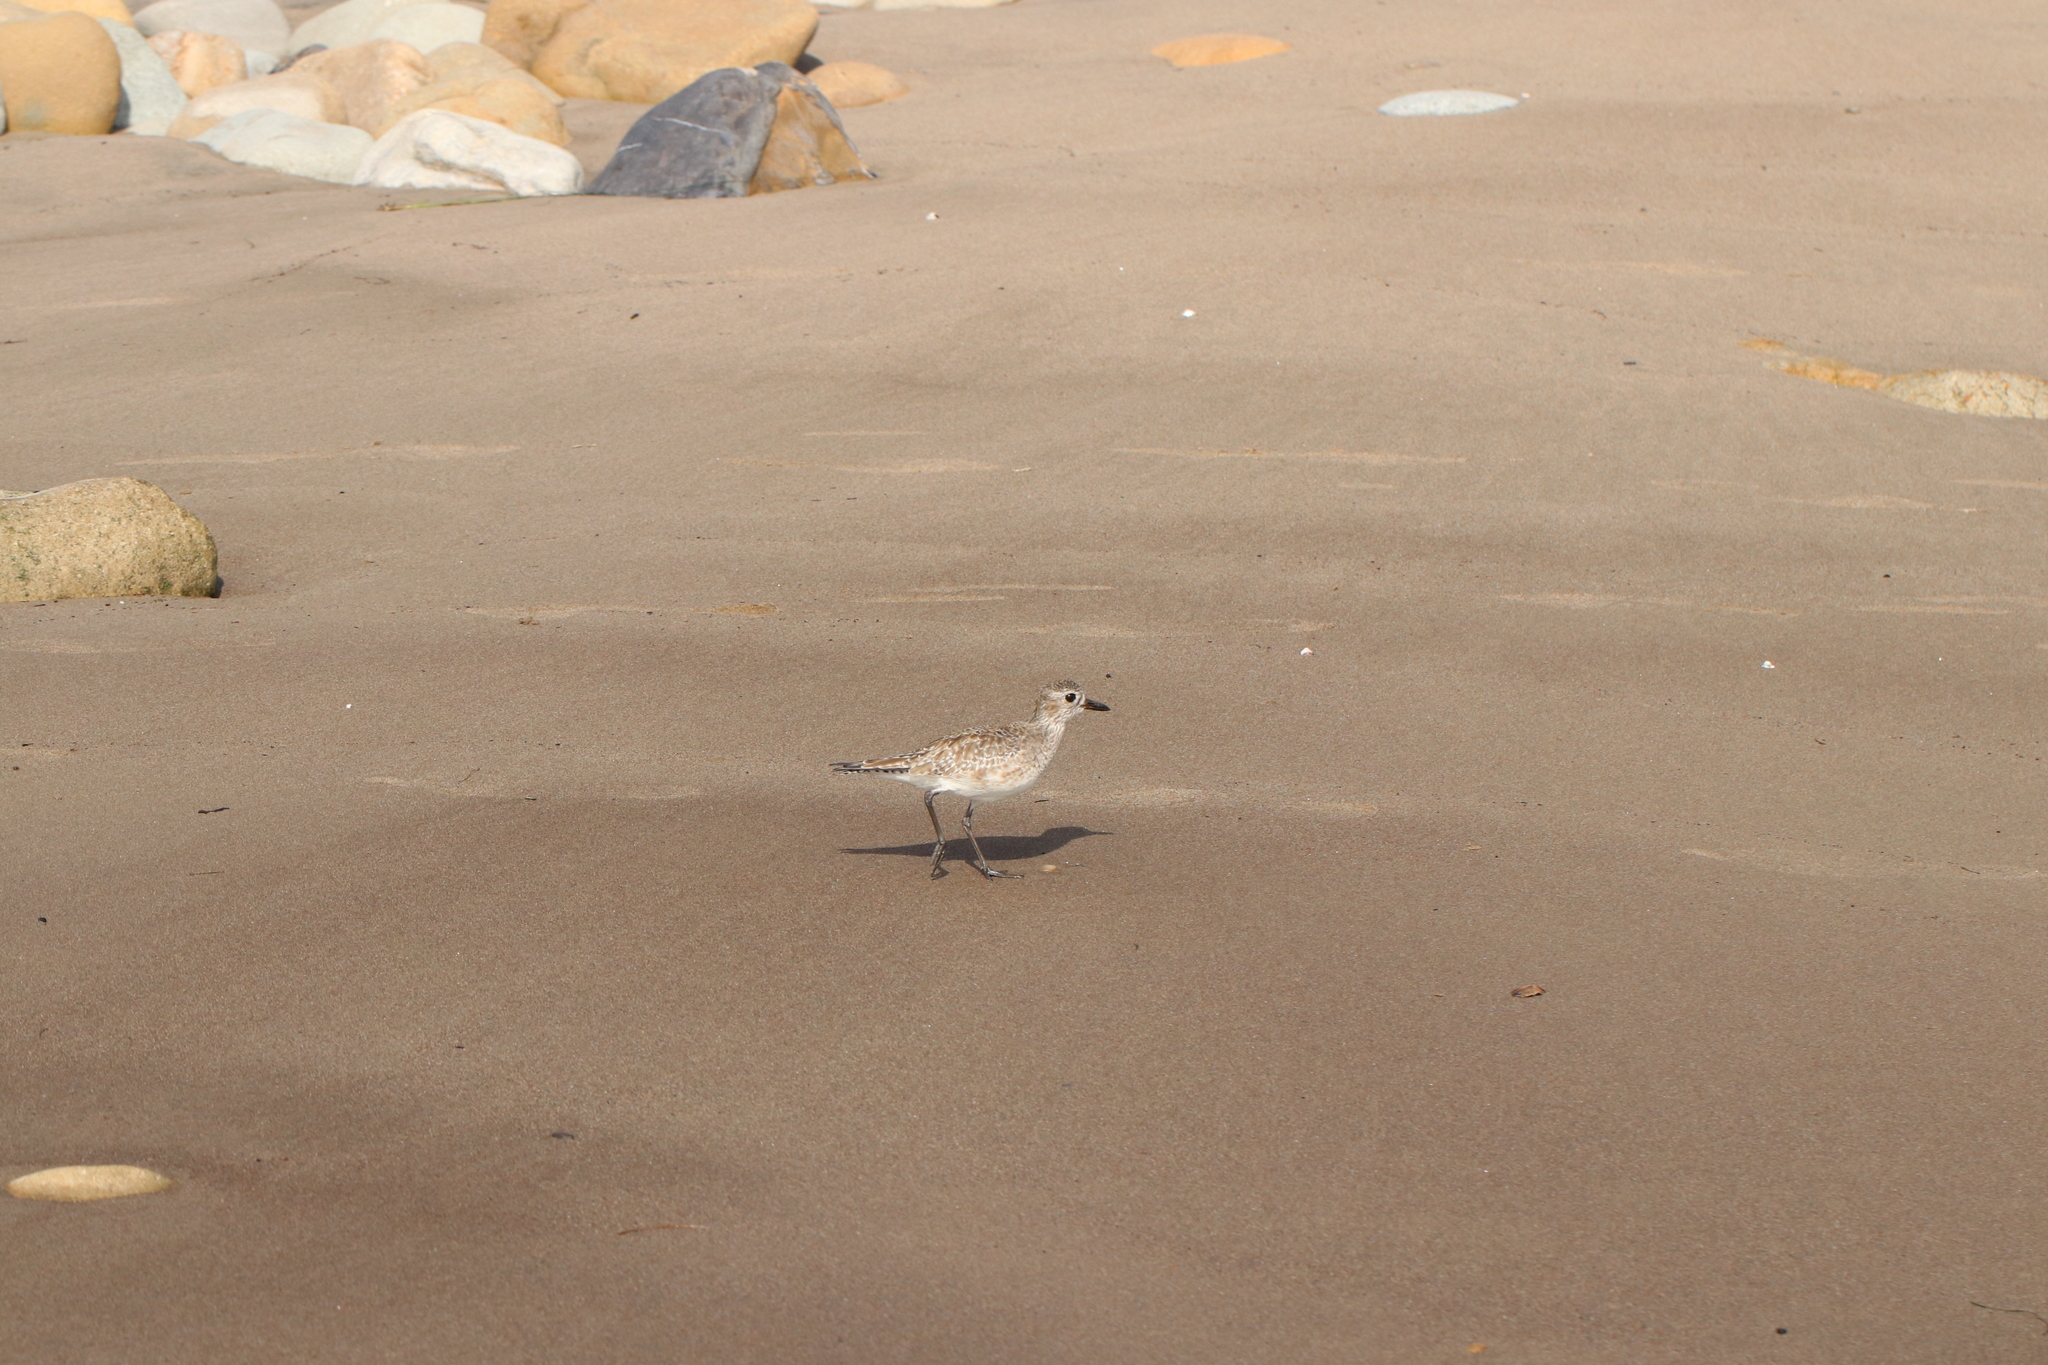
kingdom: Animalia
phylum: Chordata
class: Aves
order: Charadriiformes
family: Charadriidae
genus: Pluvialis
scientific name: Pluvialis squatarola
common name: Grey plover
